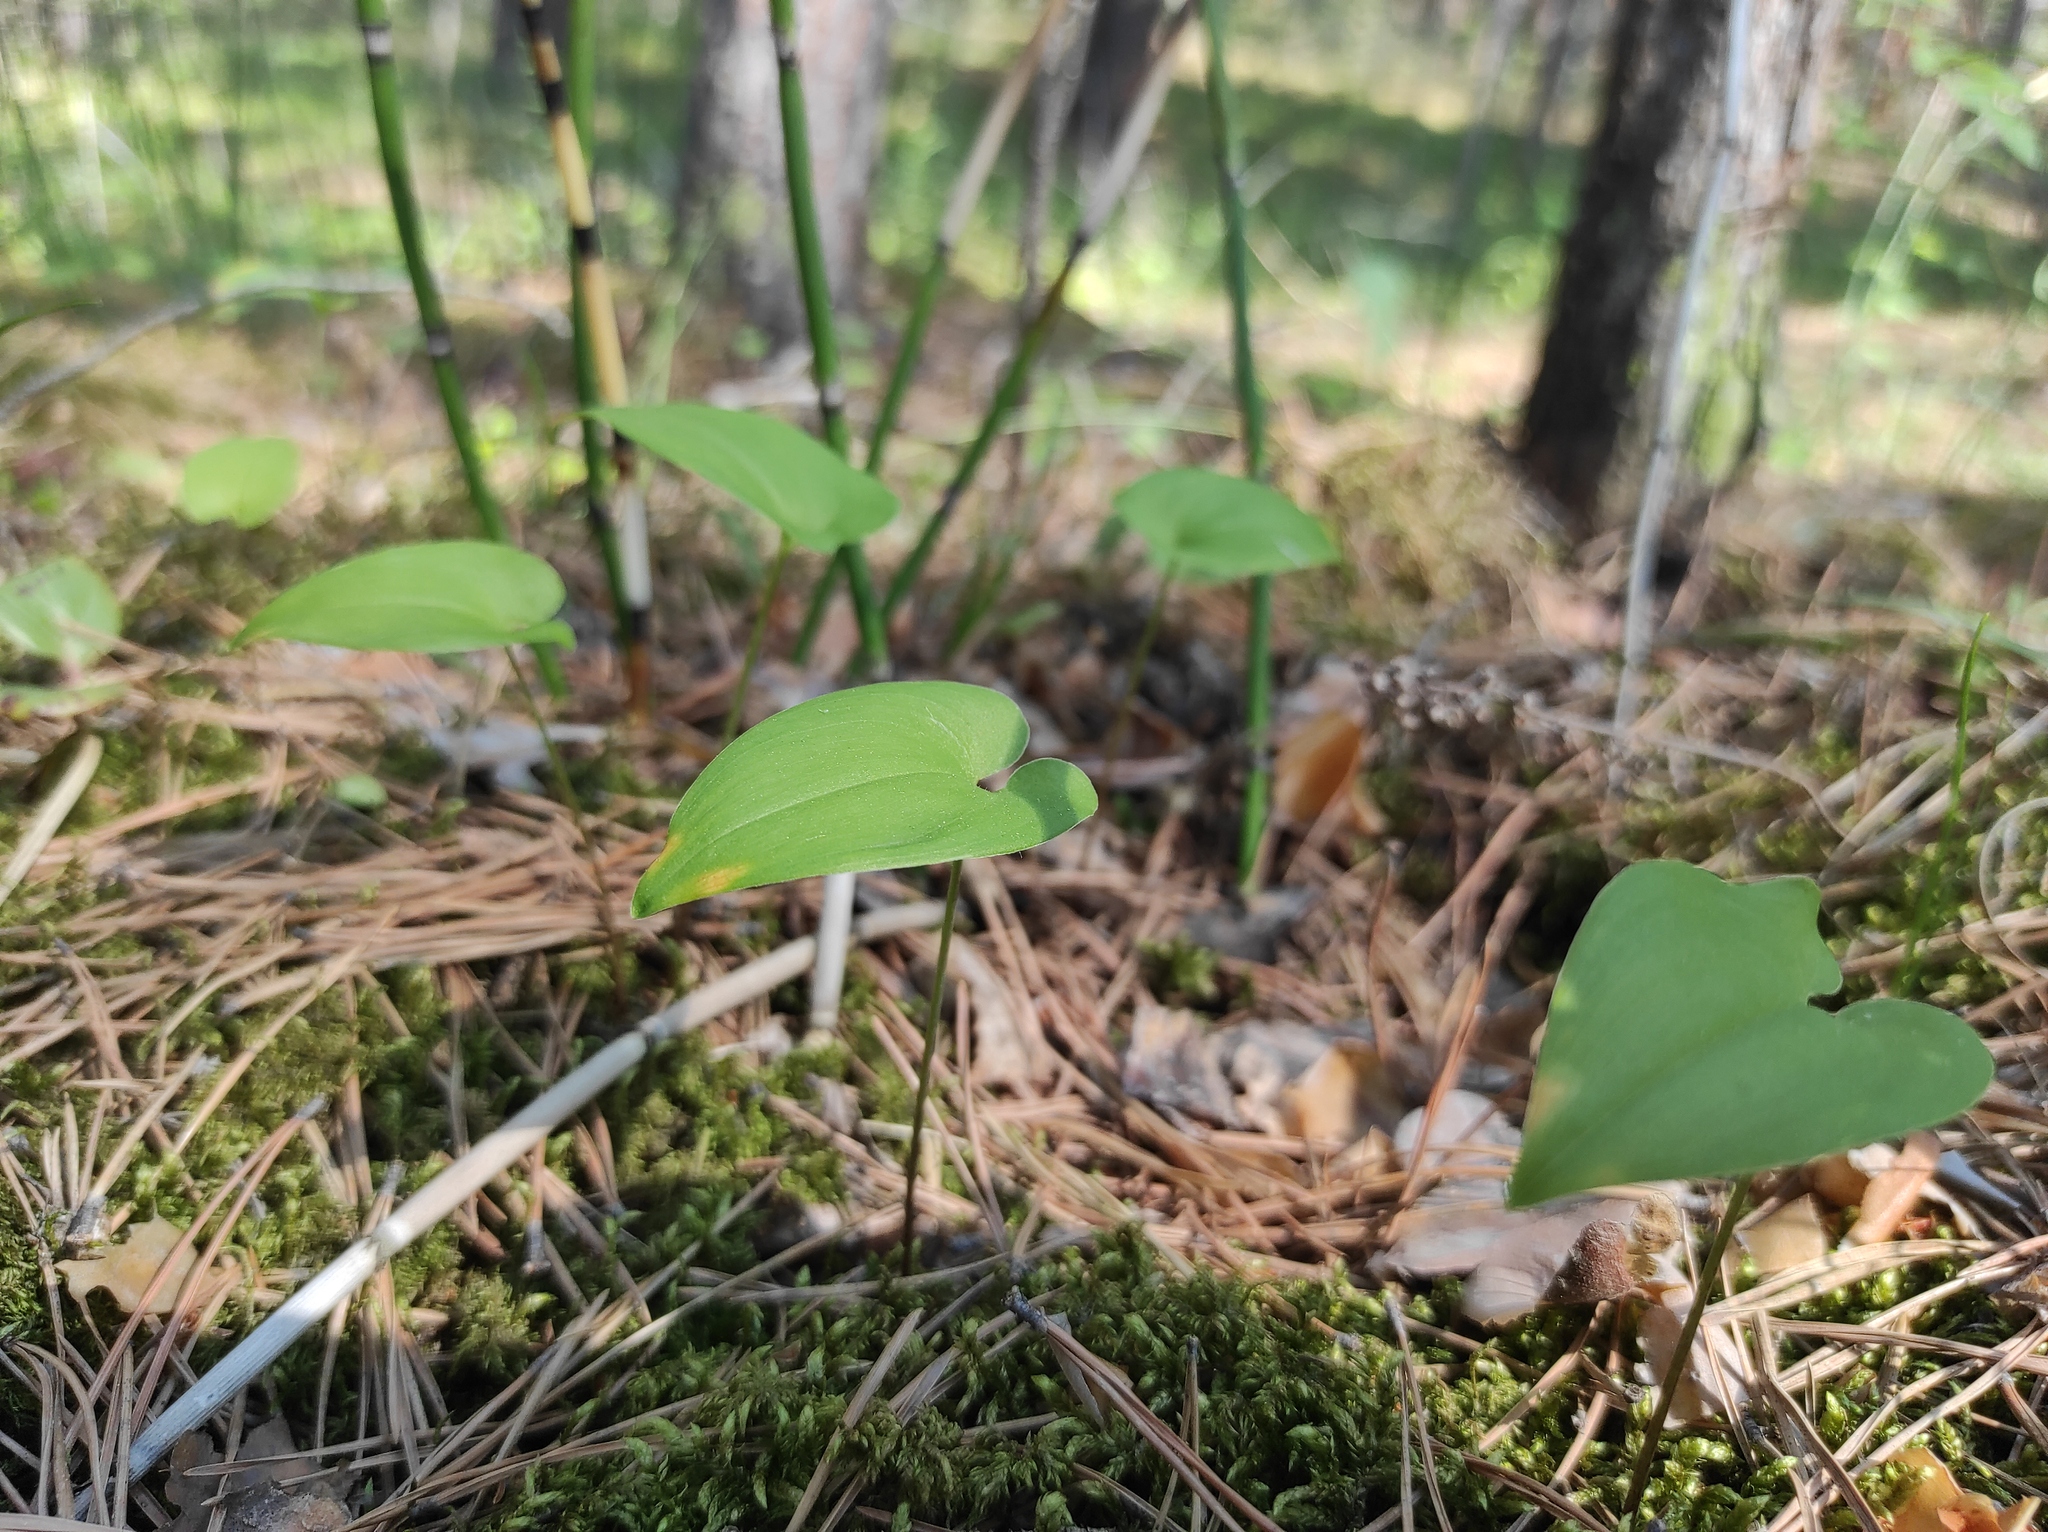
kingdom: Plantae
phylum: Tracheophyta
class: Liliopsida
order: Asparagales
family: Asparagaceae
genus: Maianthemum
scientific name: Maianthemum bifolium
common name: May lily
